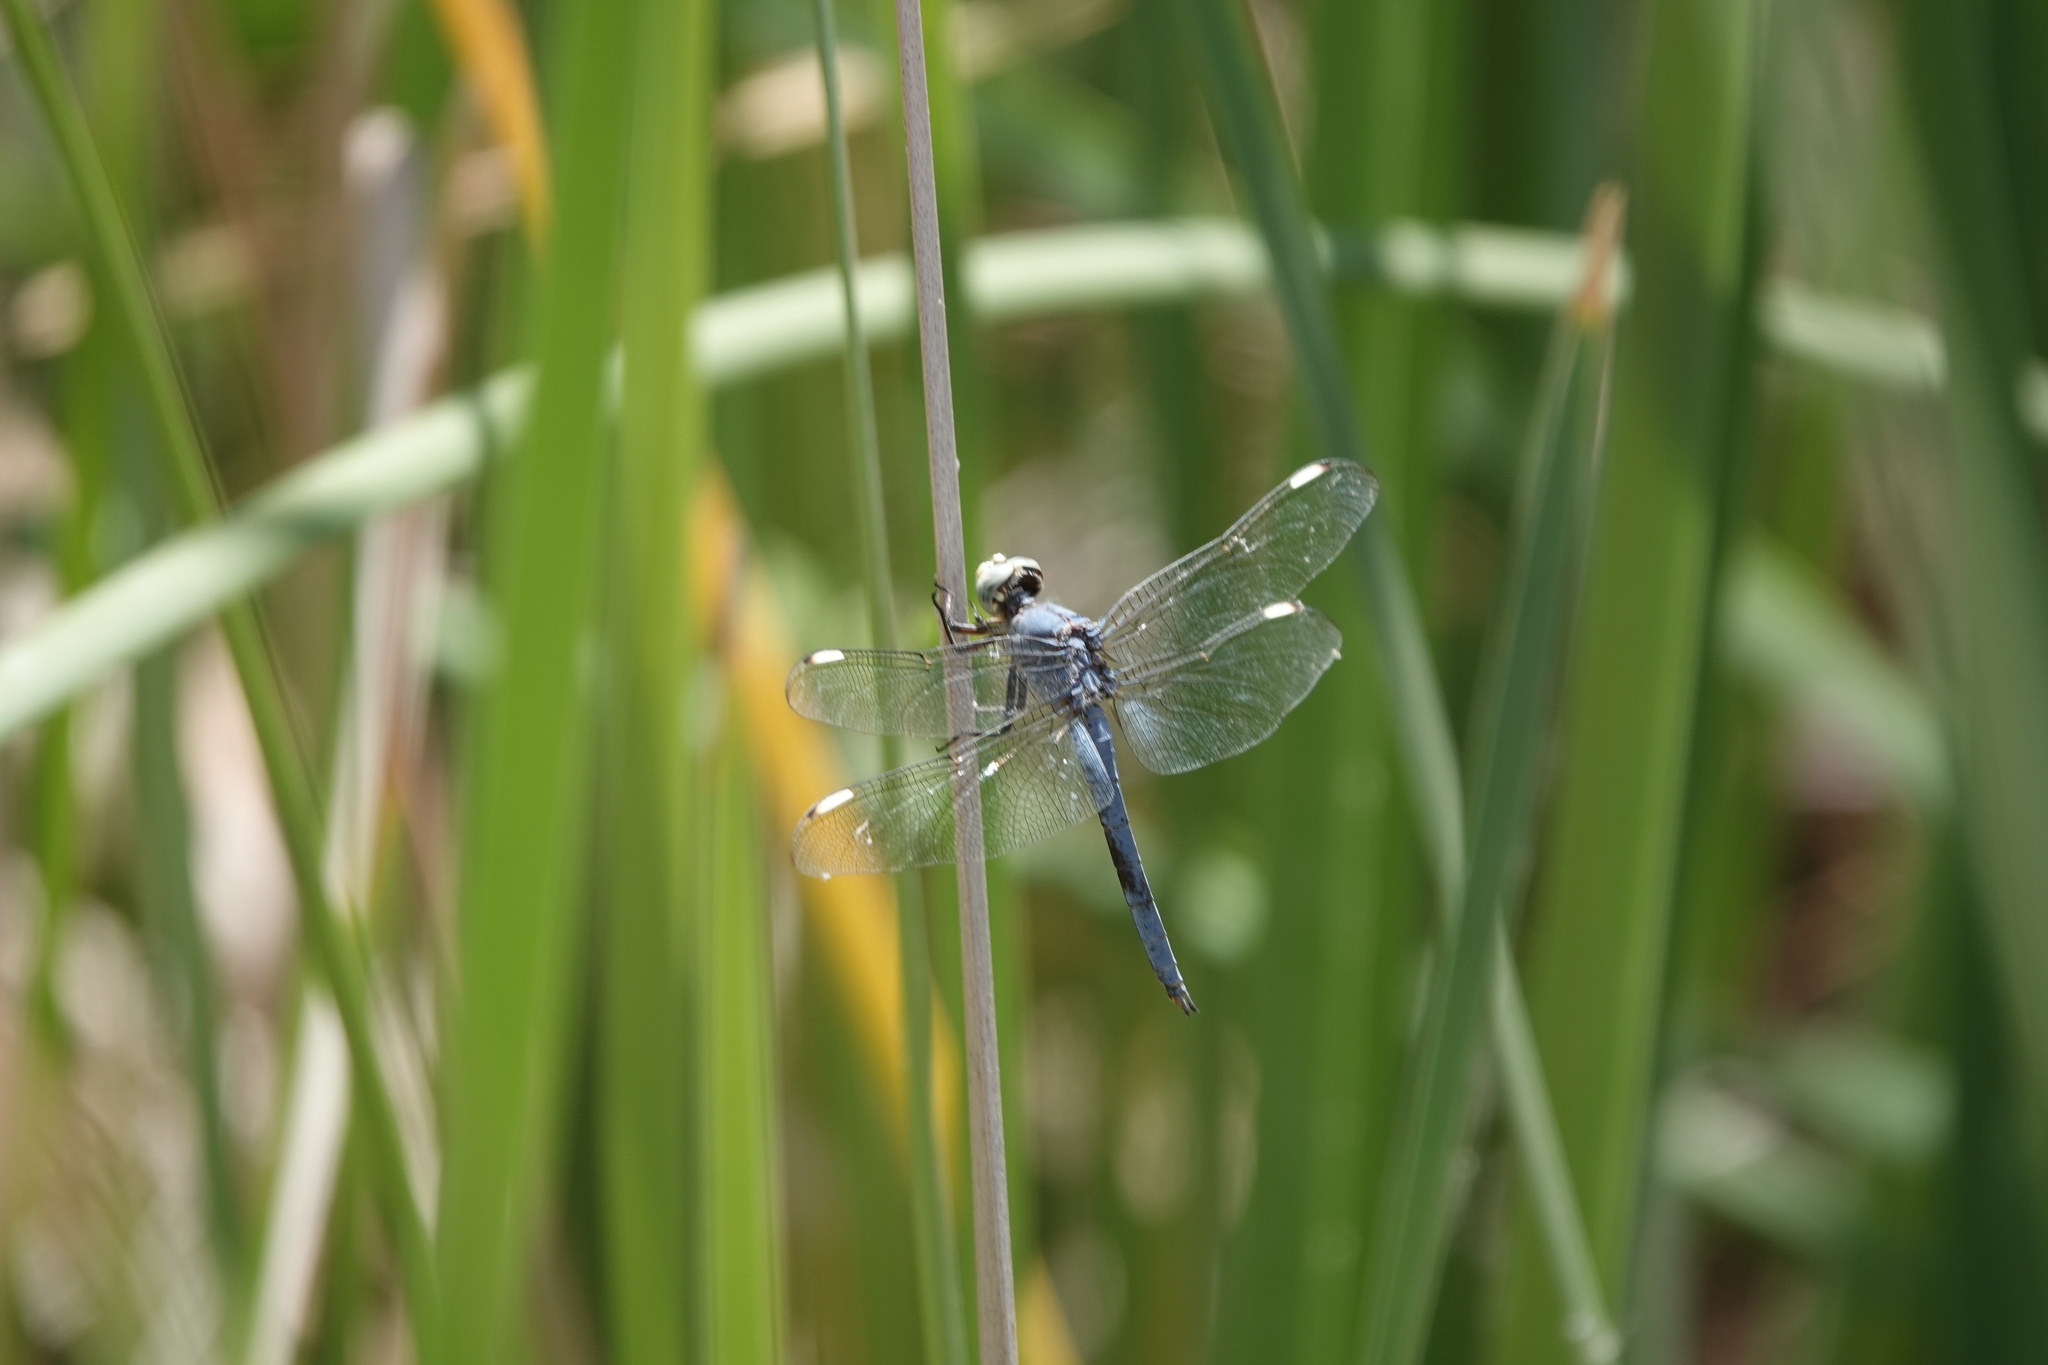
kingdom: Animalia
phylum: Arthropoda
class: Insecta
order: Odonata
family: Libellulidae
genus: Libellula
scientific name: Libellula comanche
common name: Comanche skimmer
